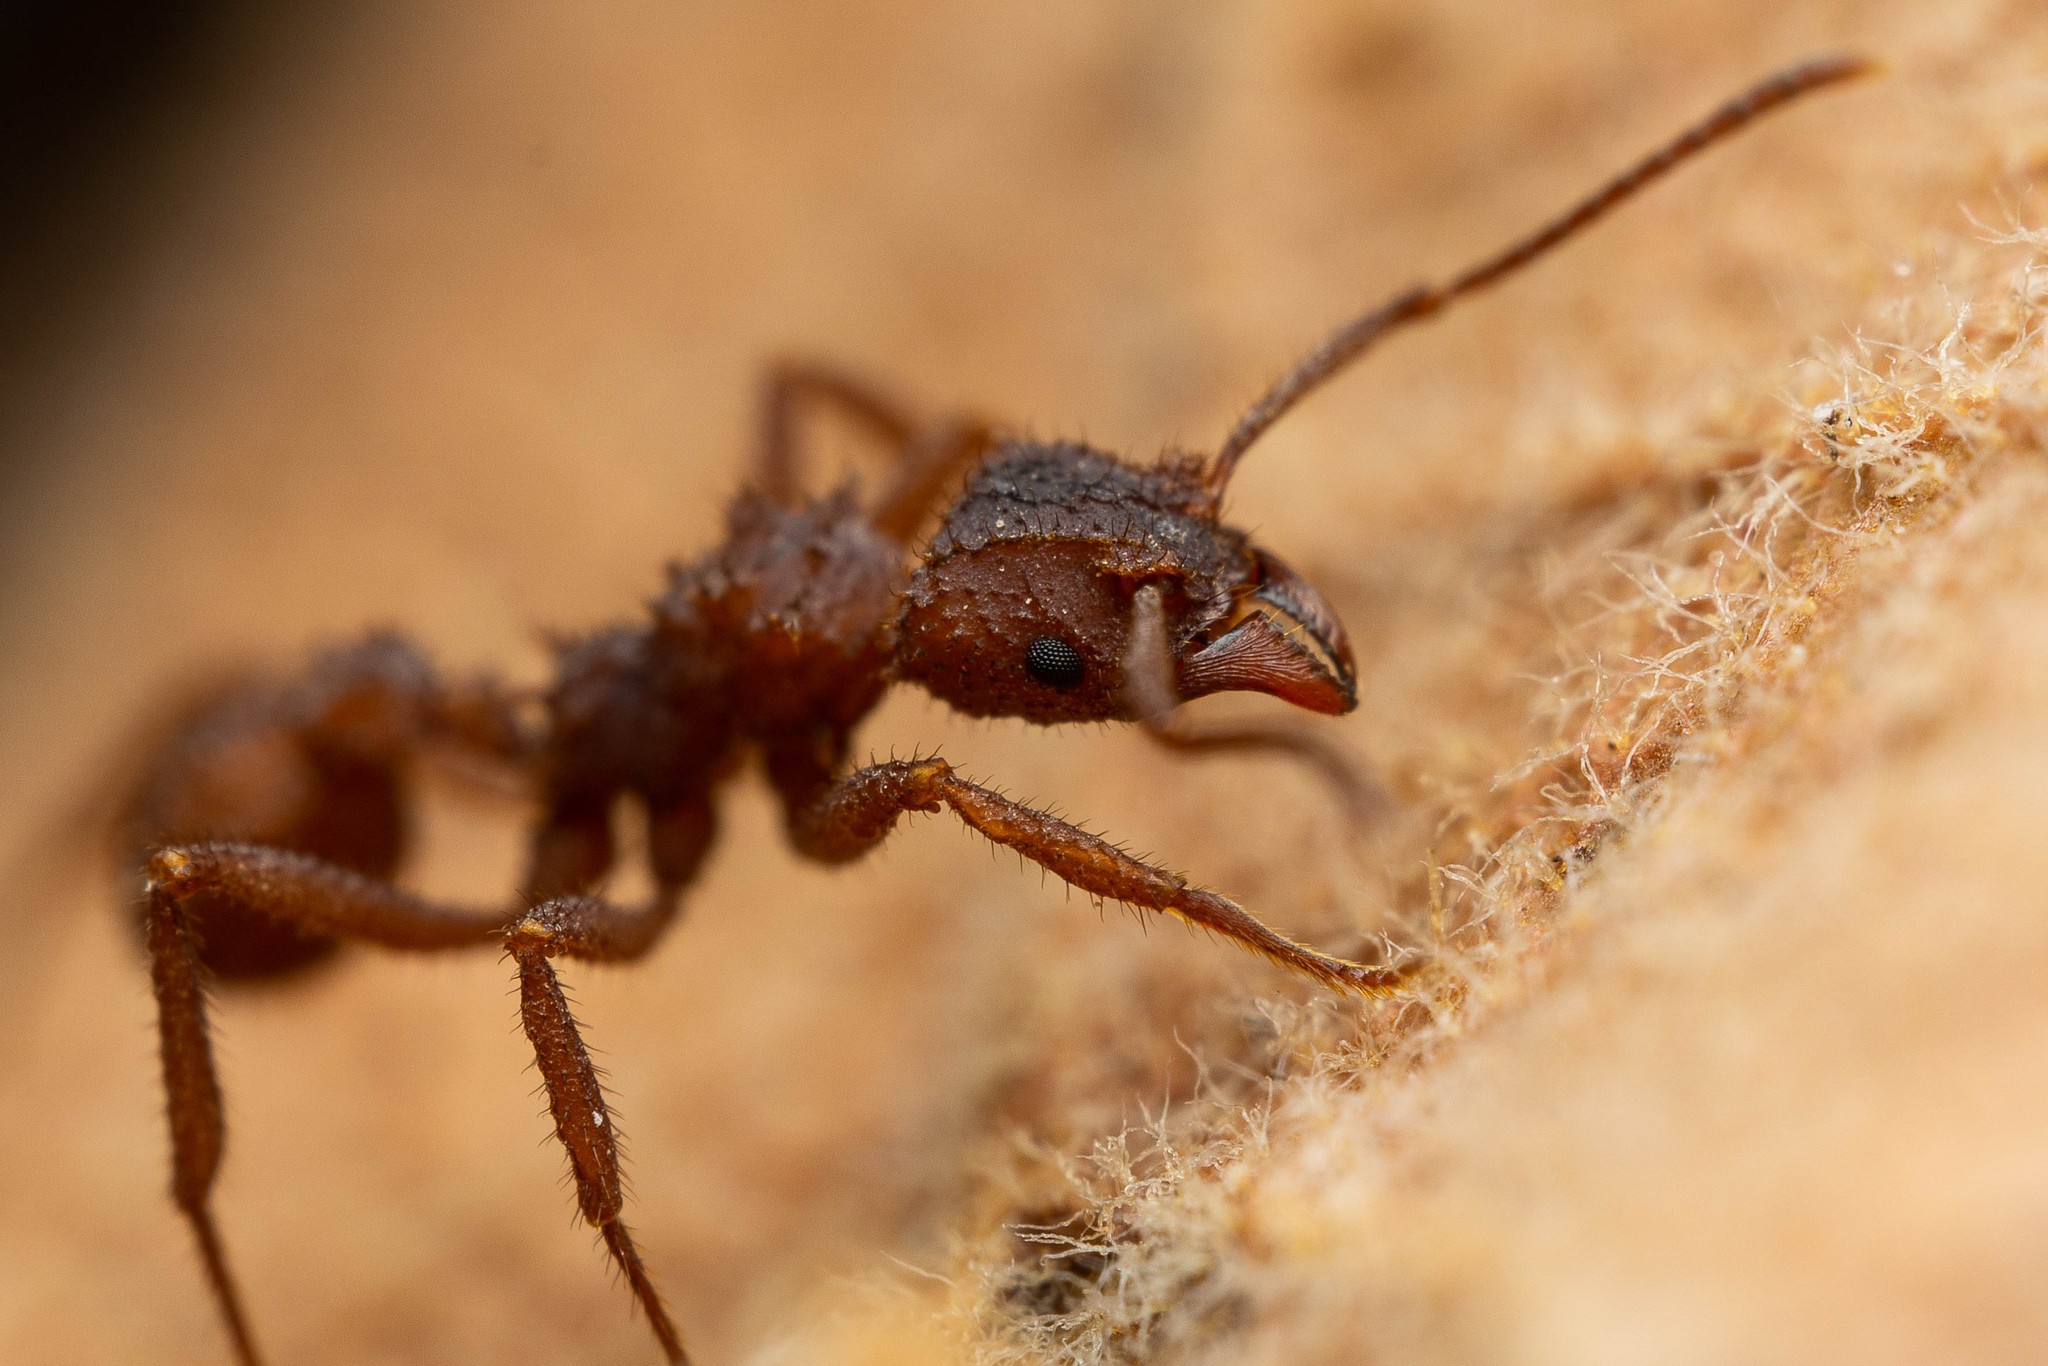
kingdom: Animalia
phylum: Arthropoda
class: Insecta
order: Hymenoptera
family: Formicidae
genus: Trachymyrmex
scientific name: Trachymyrmex arizonensis
